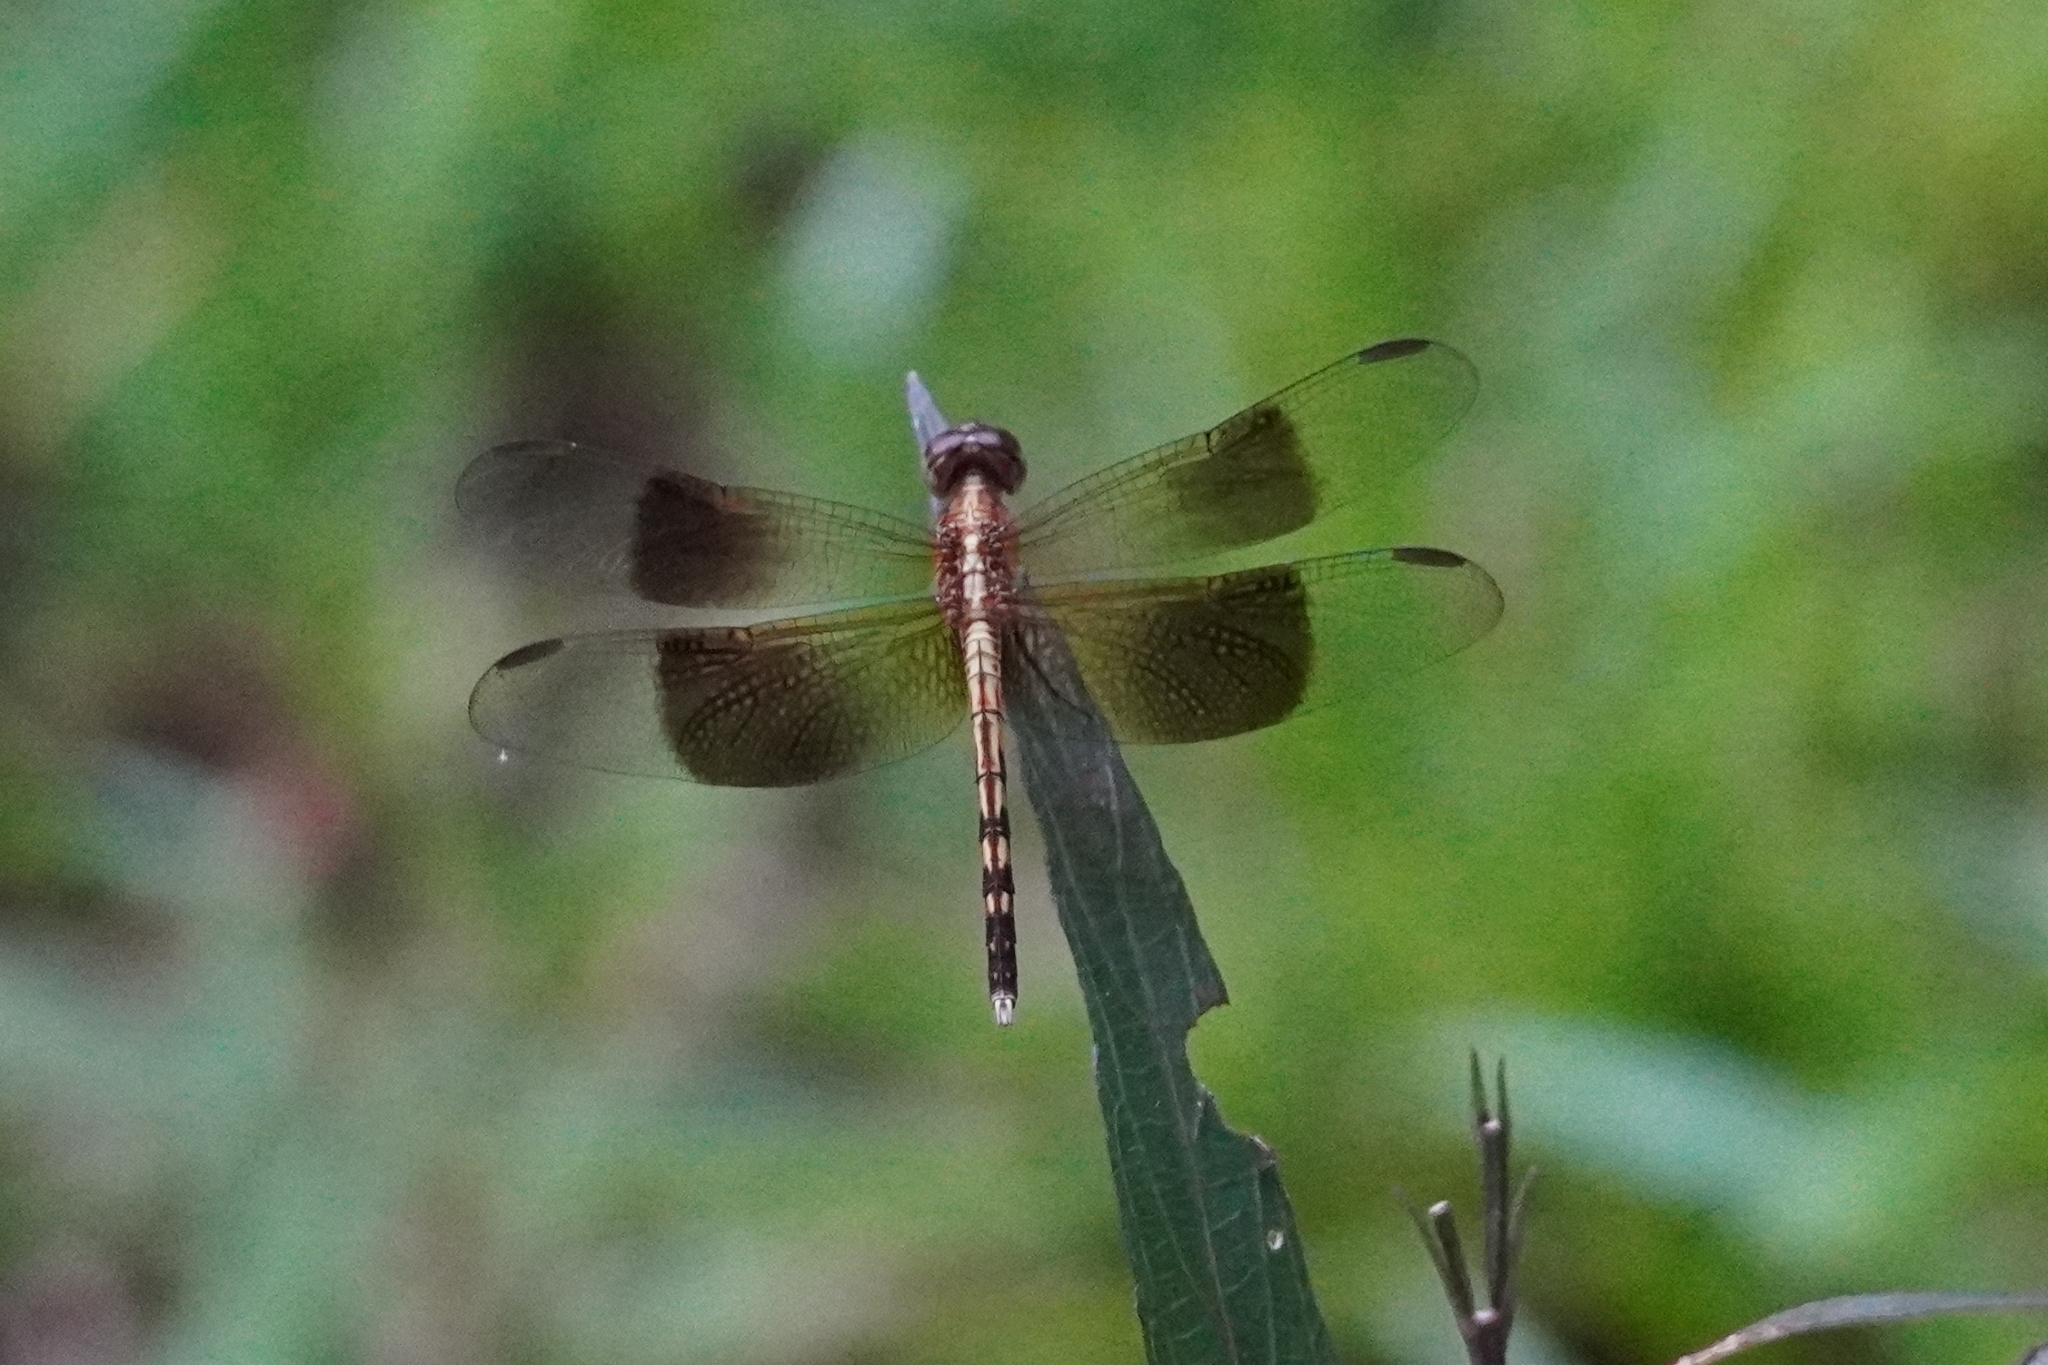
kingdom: Animalia
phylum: Arthropoda
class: Insecta
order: Odonata
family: Libellulidae
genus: Erythrodiplax
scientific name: Erythrodiplax funerea
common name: Black-winged dragonlet
